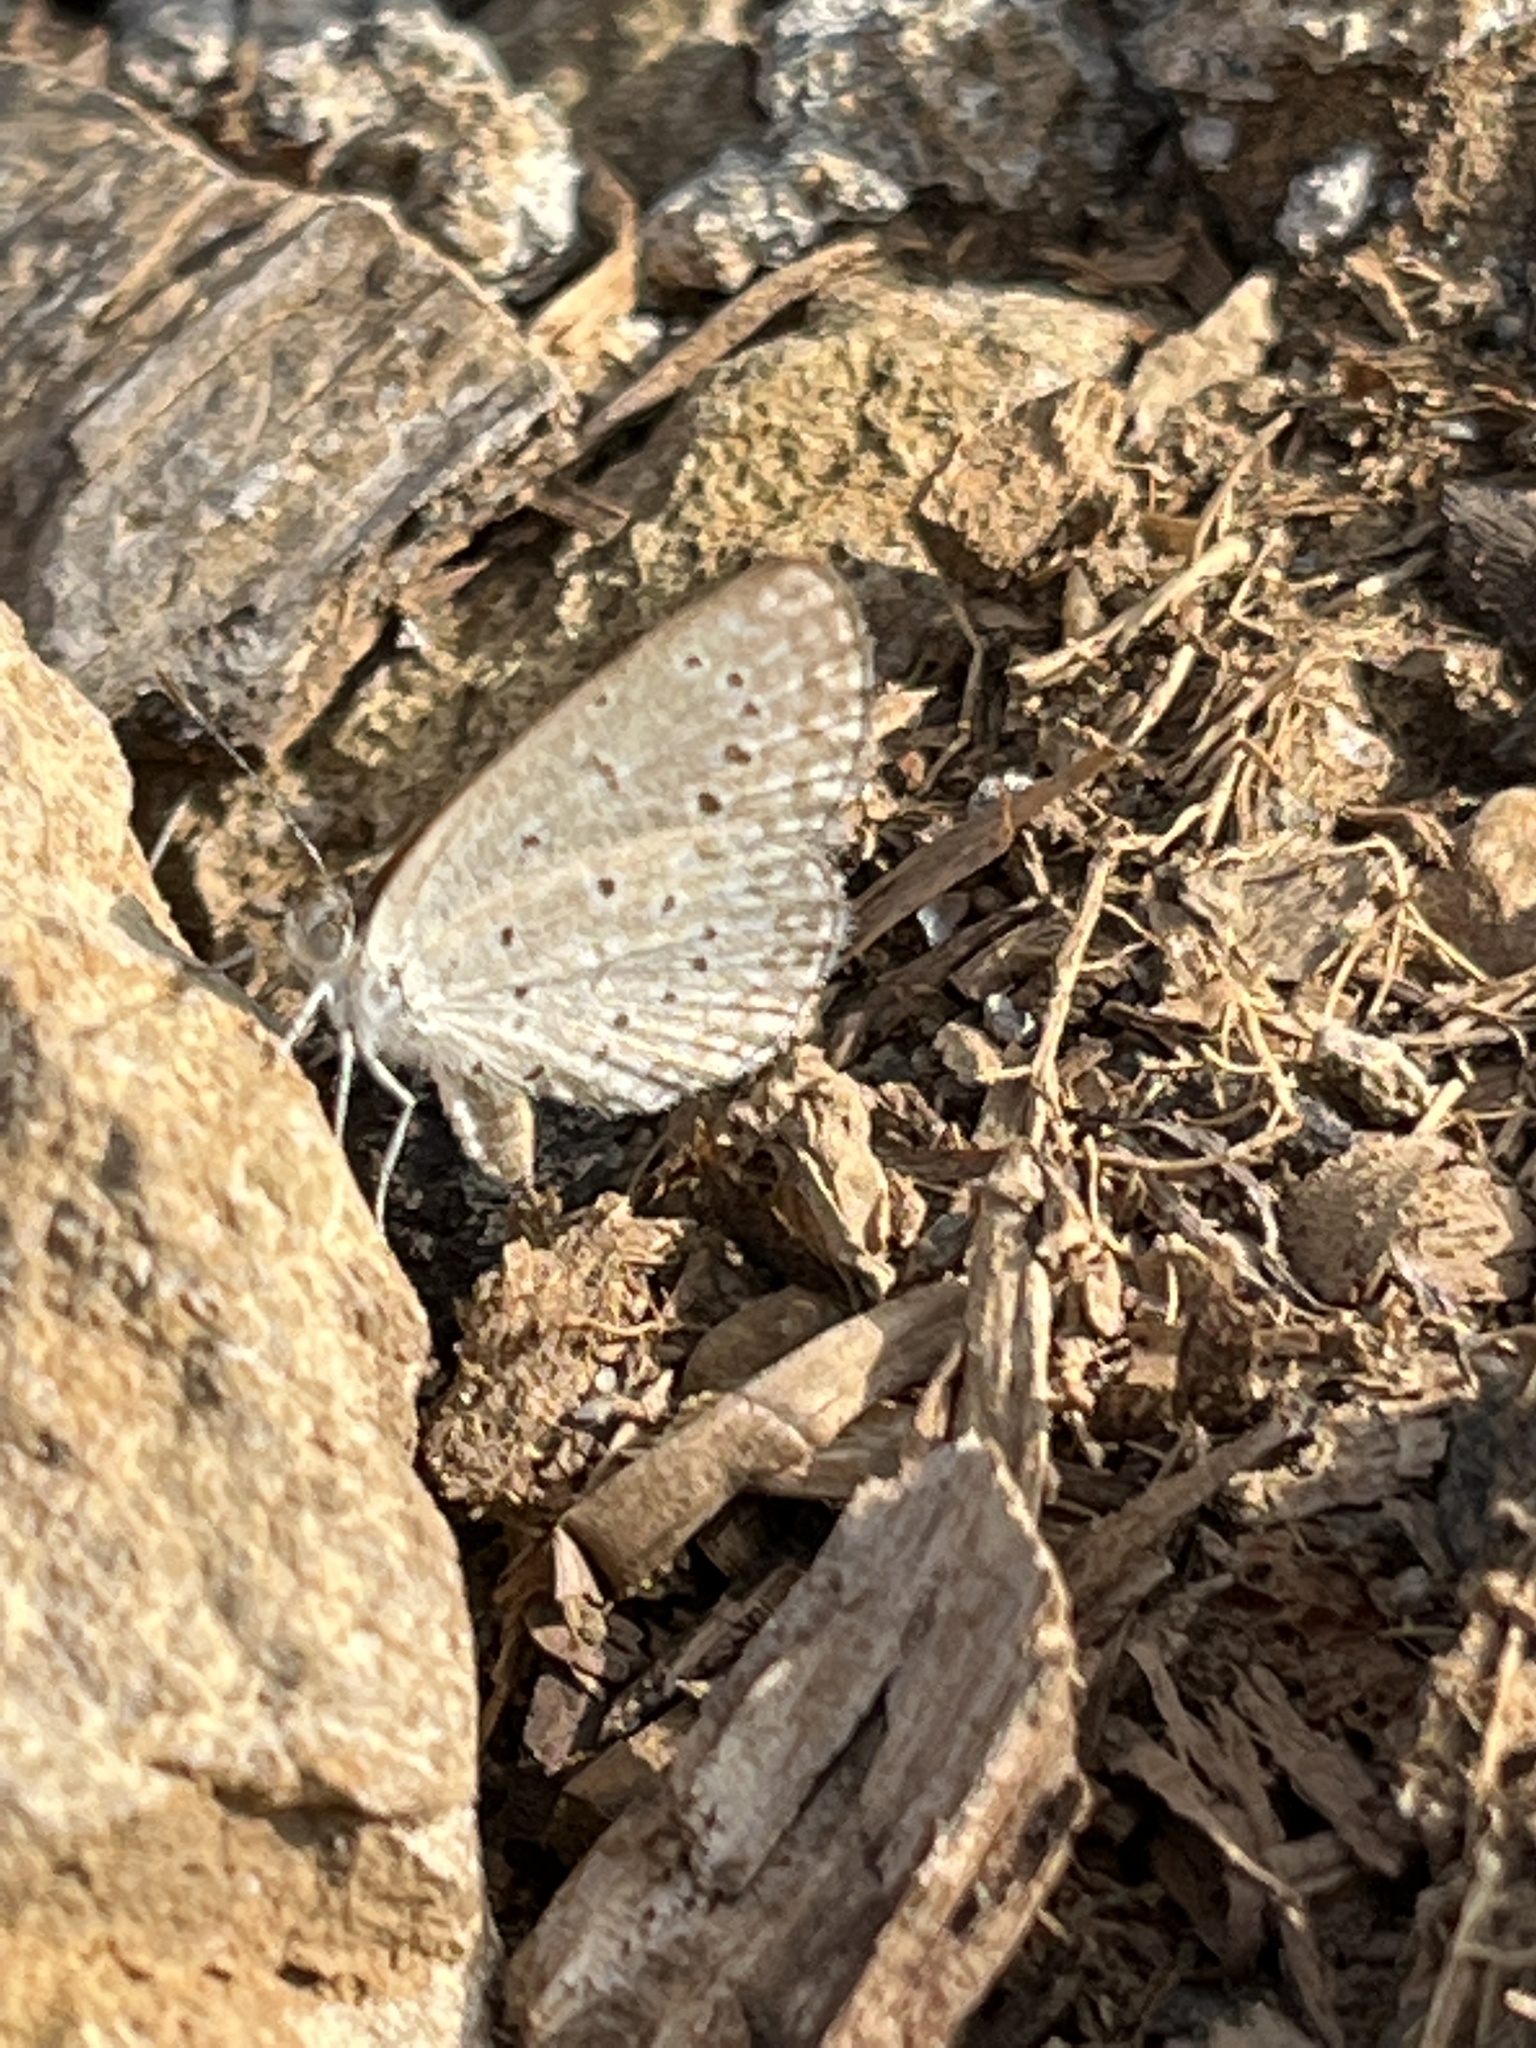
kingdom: Animalia
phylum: Arthropoda
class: Insecta
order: Lepidoptera
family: Lycaenidae
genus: Zizeeria
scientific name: Zizeeria knysna
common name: African grass blue
